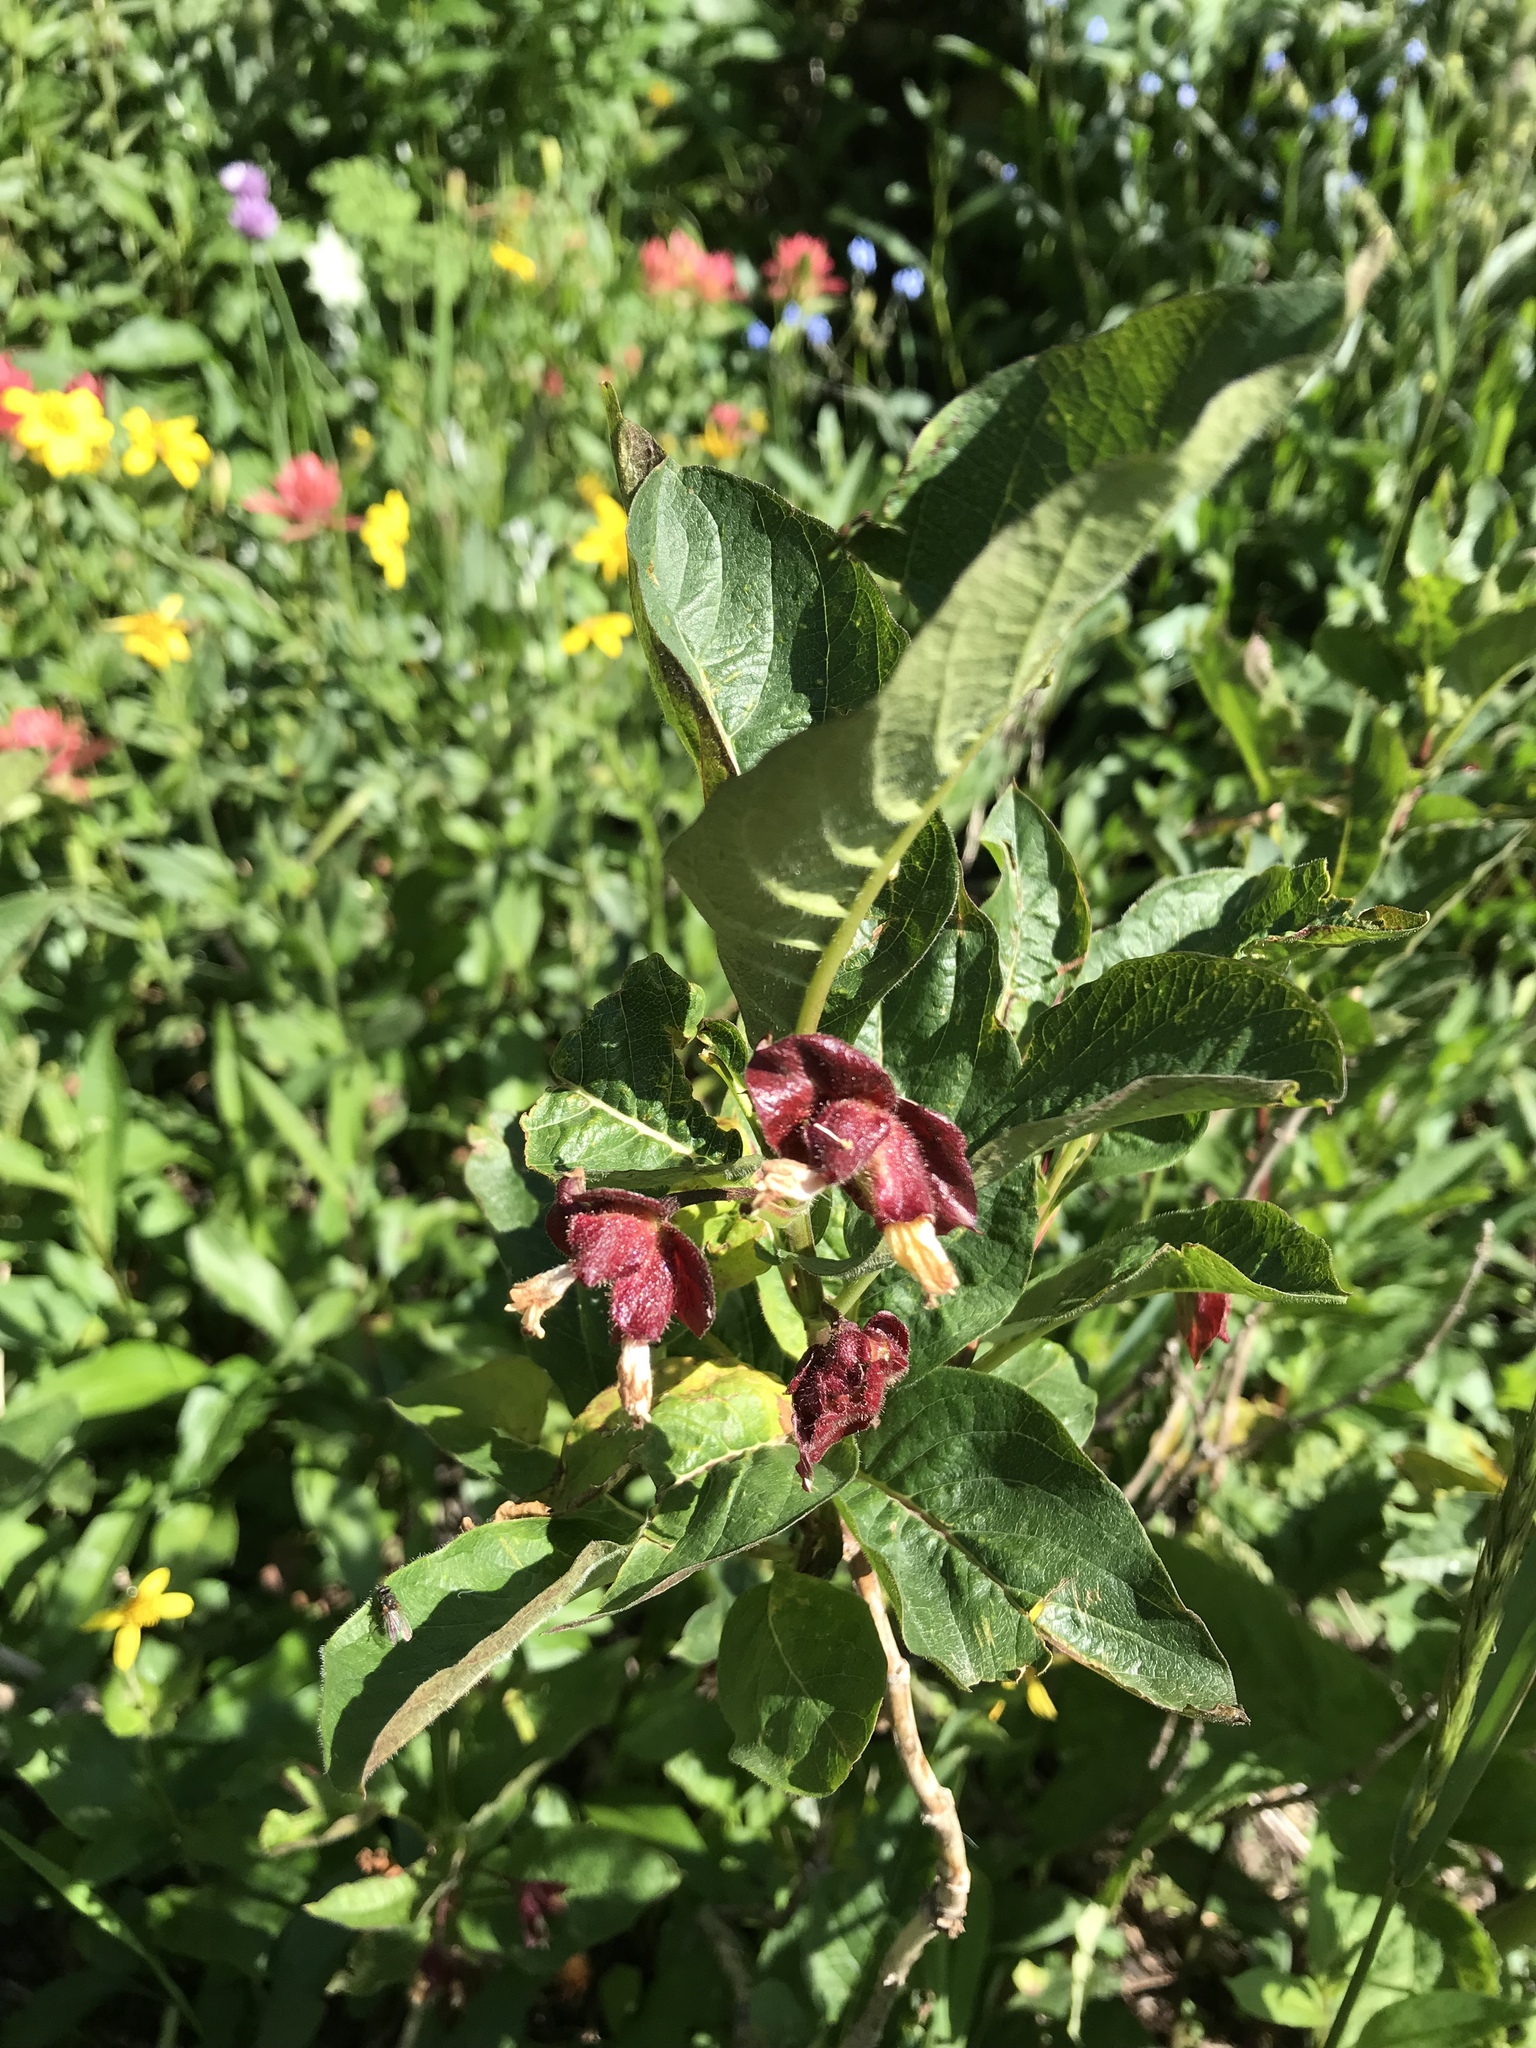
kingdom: Plantae
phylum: Tracheophyta
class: Magnoliopsida
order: Dipsacales
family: Caprifoliaceae
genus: Lonicera
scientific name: Lonicera involucrata
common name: Californian honeysuckle
